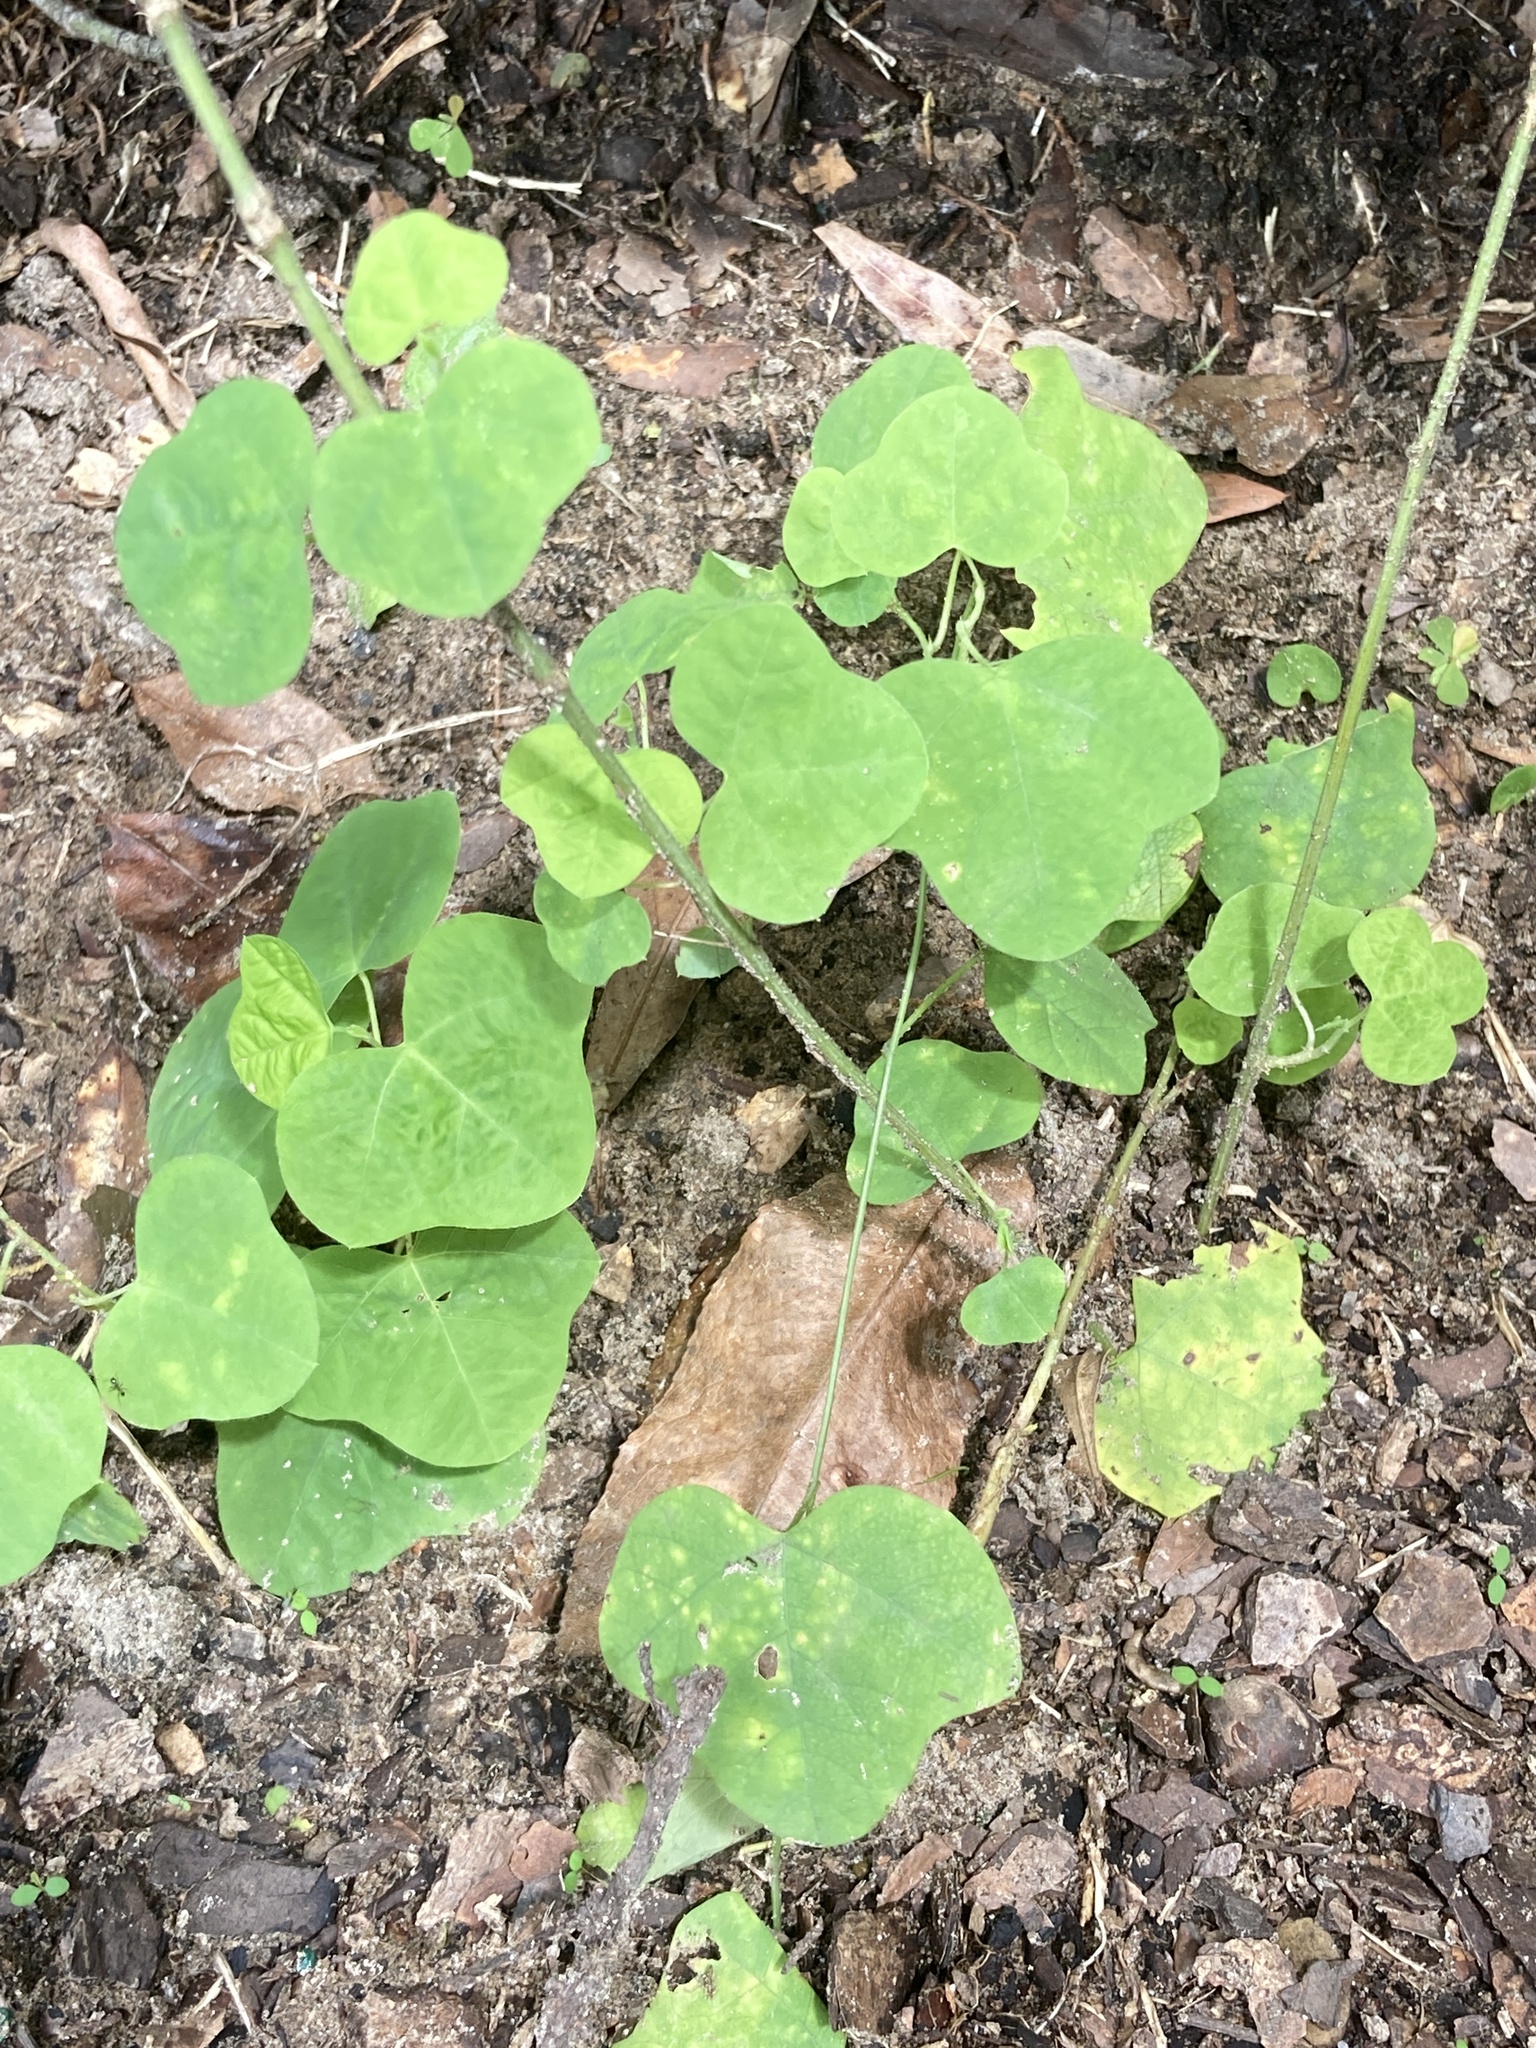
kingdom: Plantae
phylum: Tracheophyta
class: Magnoliopsida
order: Malpighiales
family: Passifloraceae
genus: Passiflora
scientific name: Passiflora lutea
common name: Yellow passionflower
